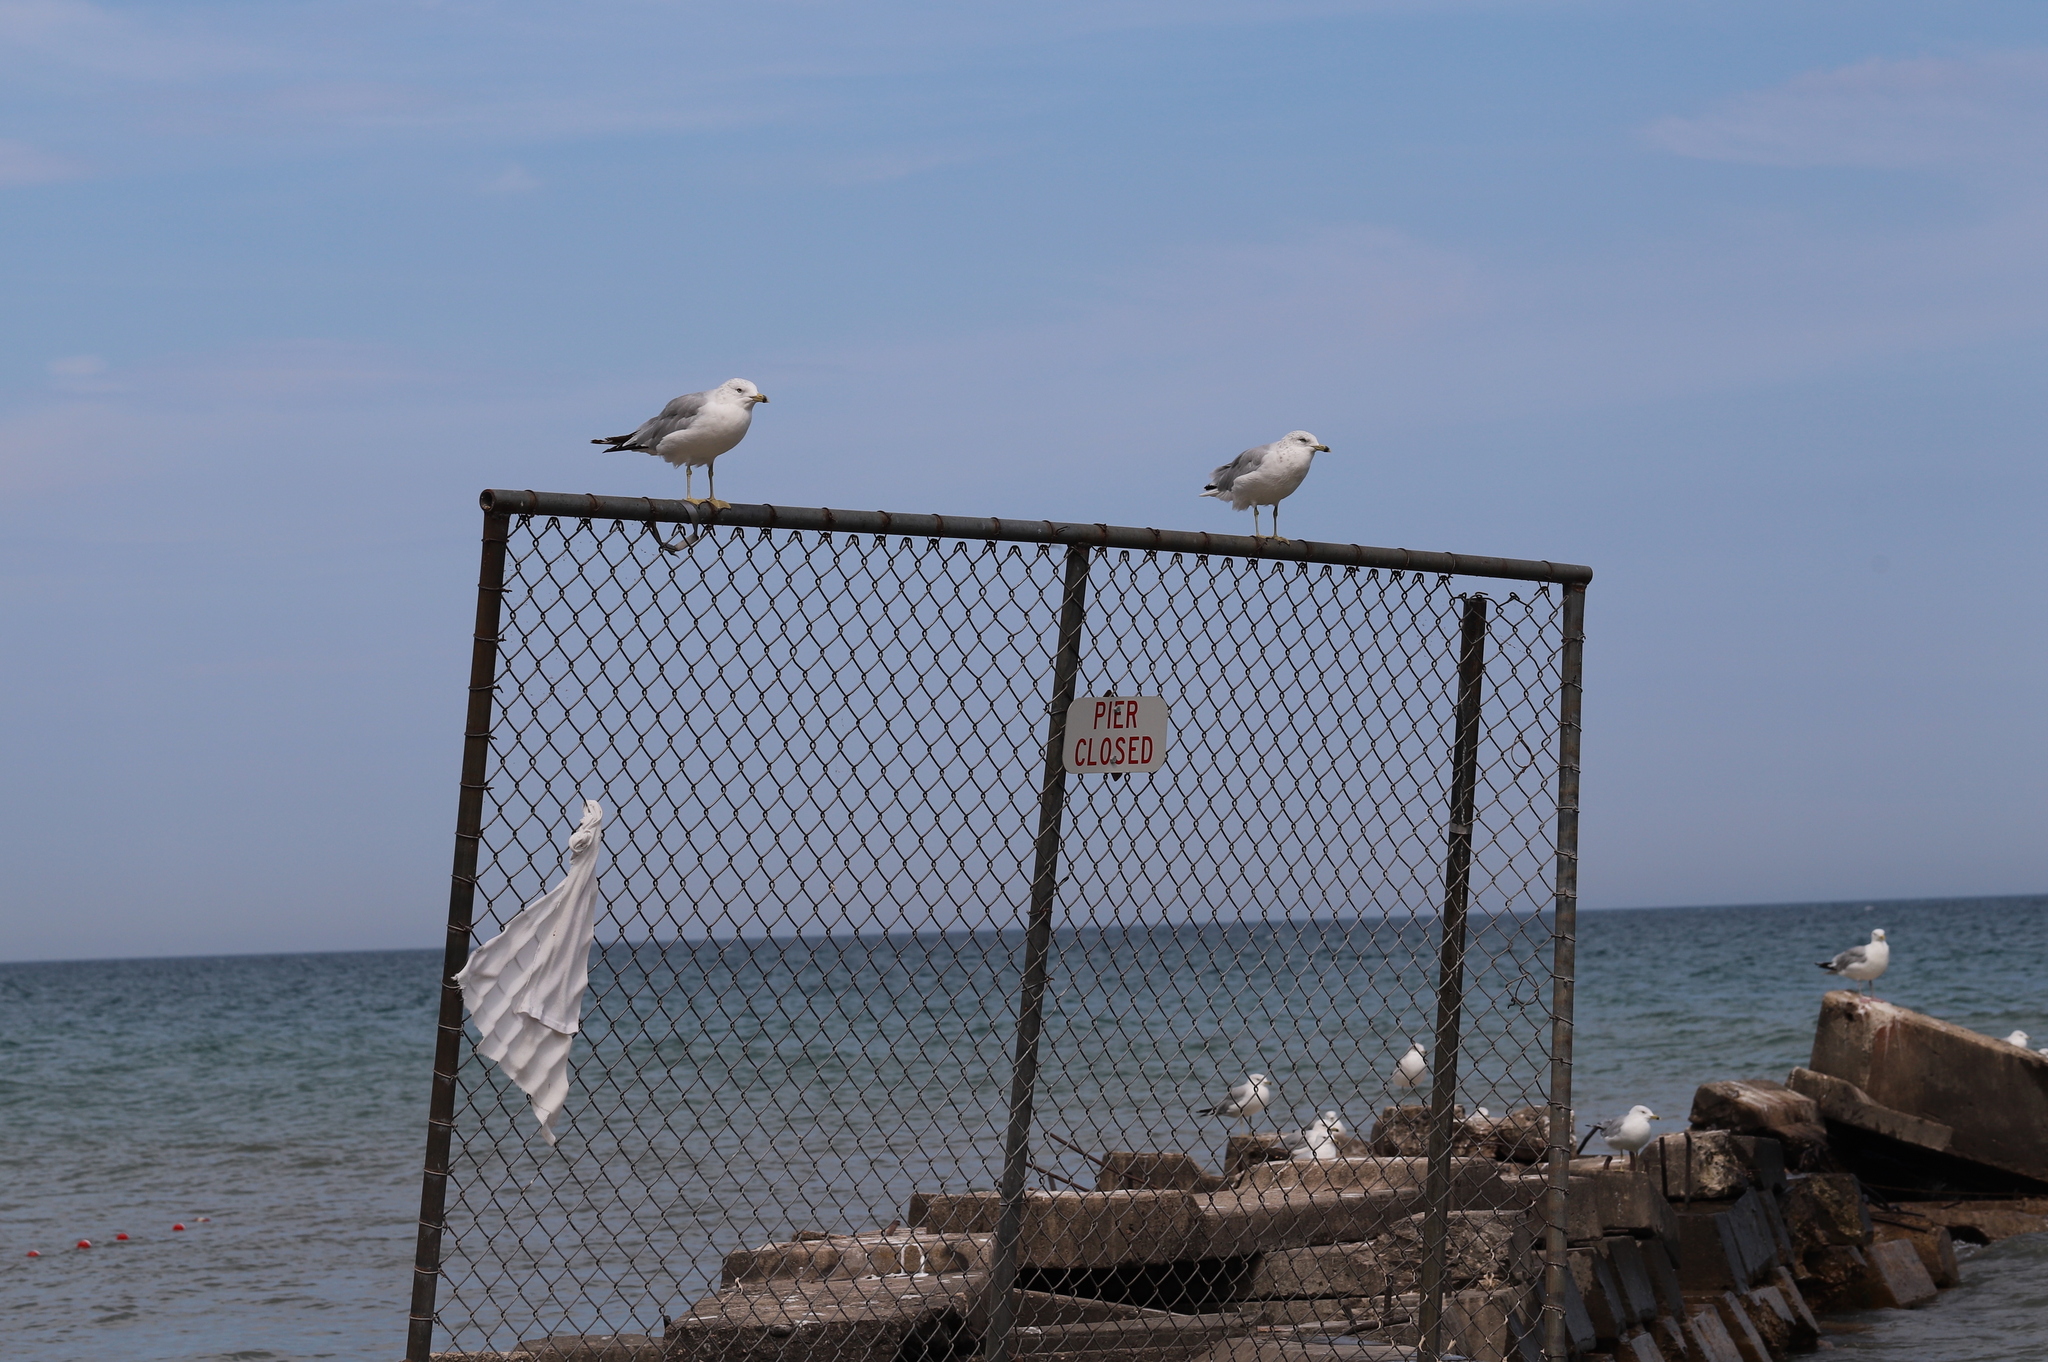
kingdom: Animalia
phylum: Chordata
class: Aves
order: Charadriiformes
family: Laridae
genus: Larus
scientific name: Larus delawarensis
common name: Ring-billed gull
